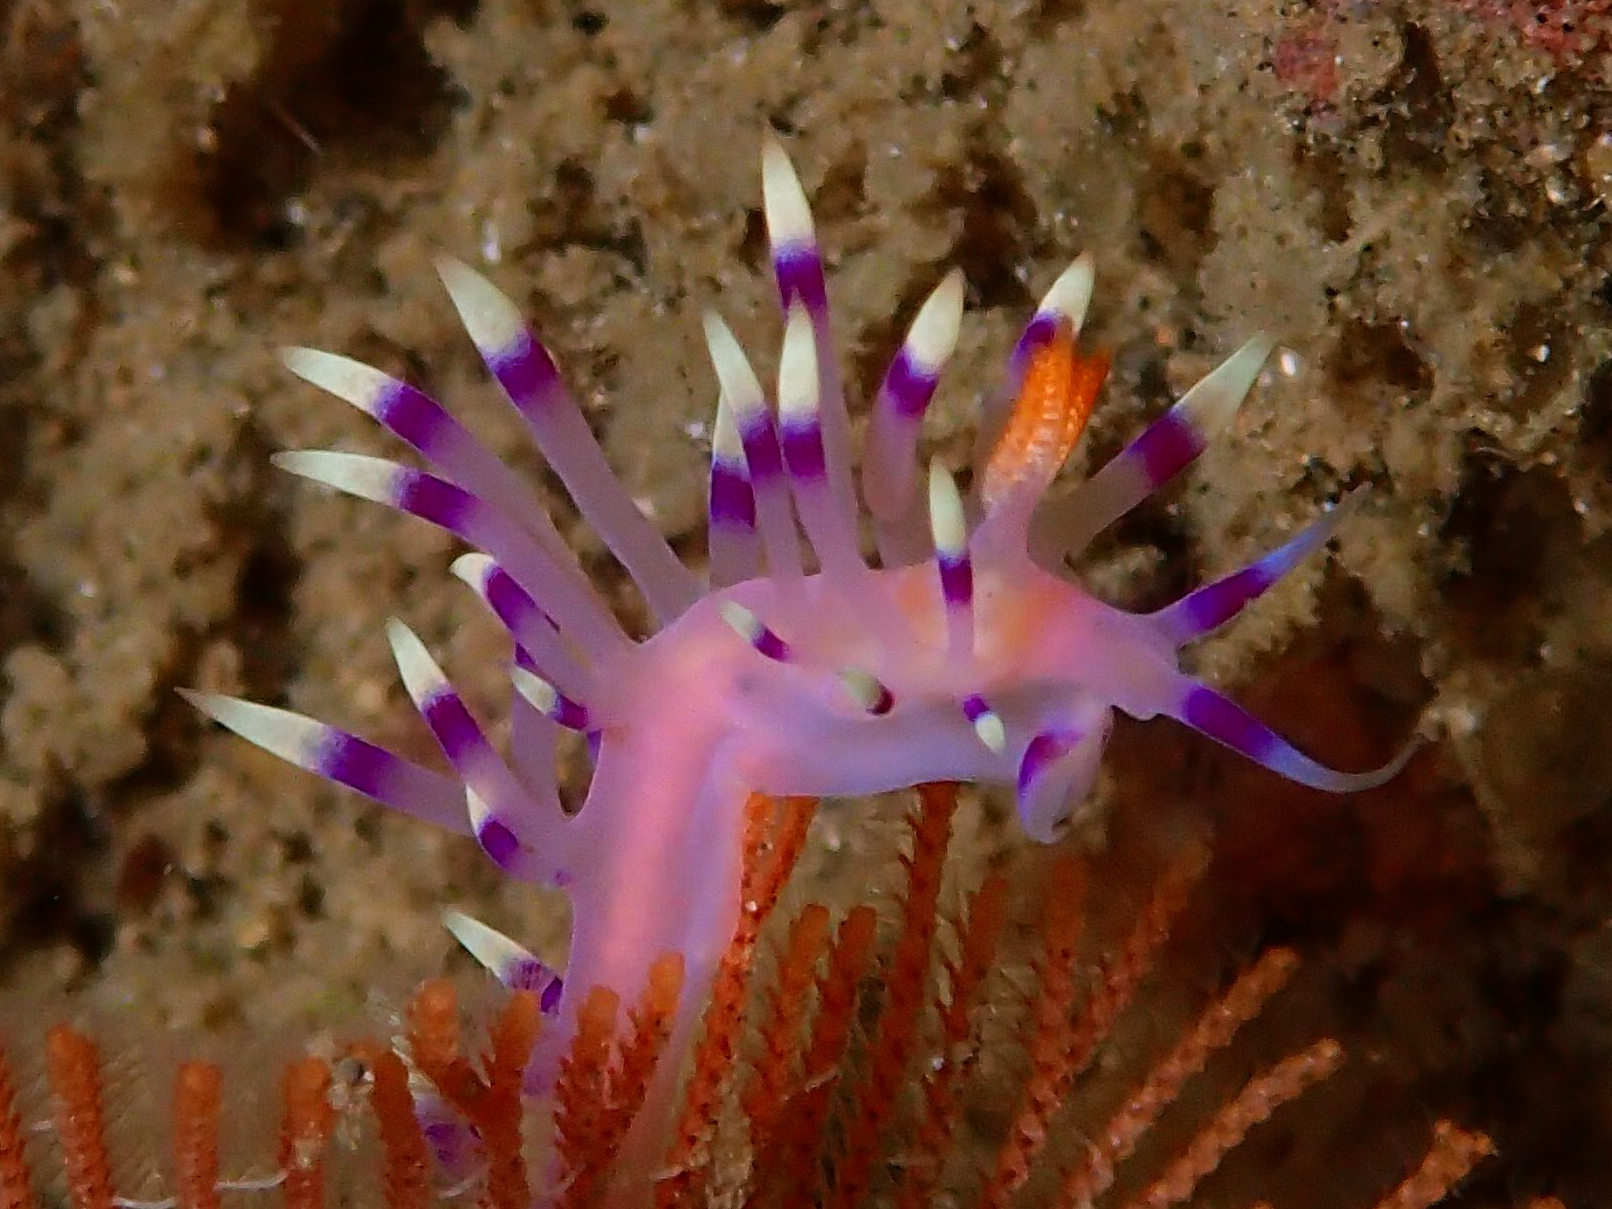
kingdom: Animalia
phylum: Mollusca
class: Gastropoda
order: Nudibranchia
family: Flabellinidae
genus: Coryphellina
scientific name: Coryphellina exoptata
